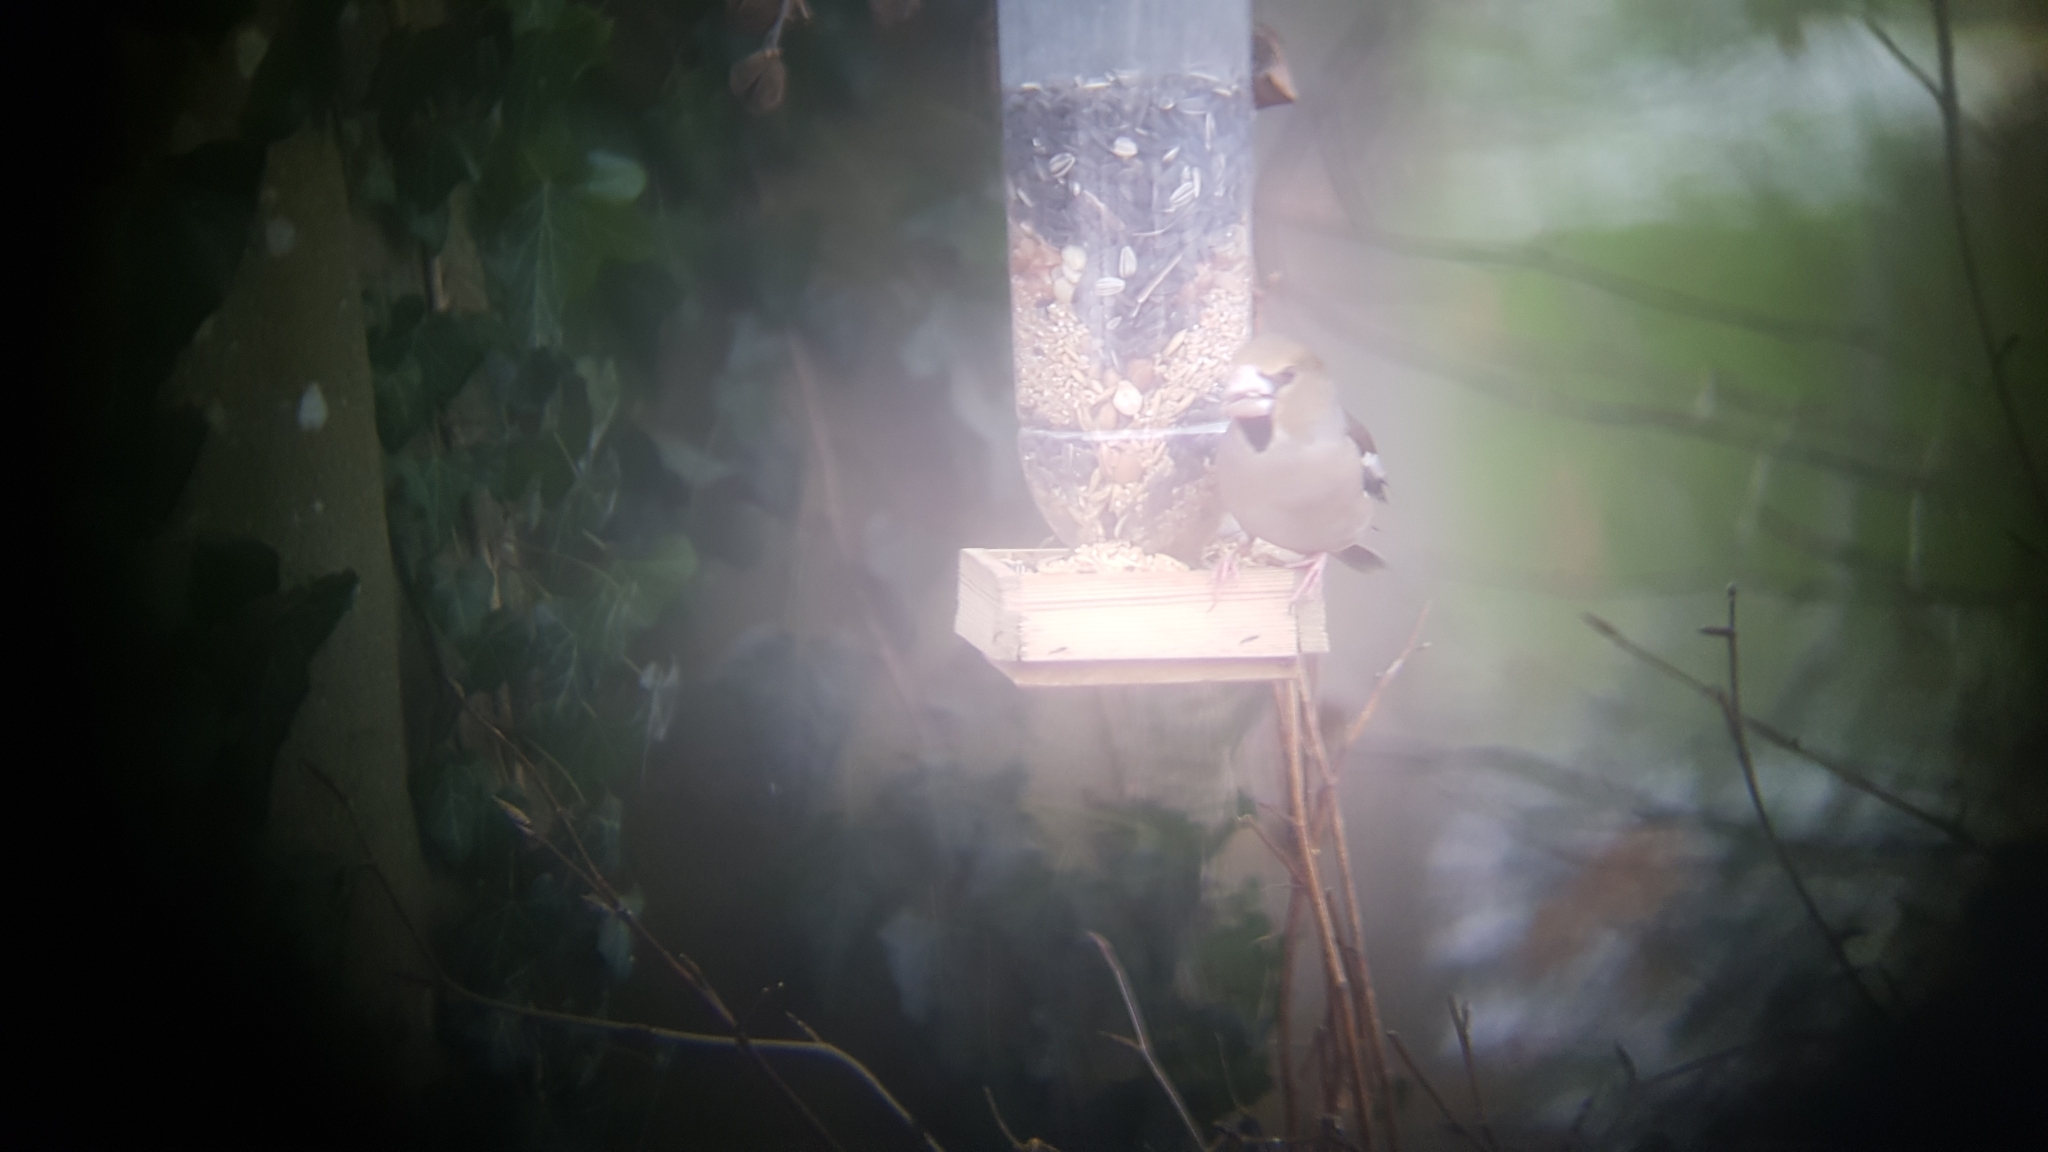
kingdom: Animalia
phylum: Chordata
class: Aves
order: Passeriformes
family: Fringillidae
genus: Coccothraustes
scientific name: Coccothraustes coccothraustes
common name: Hawfinch
